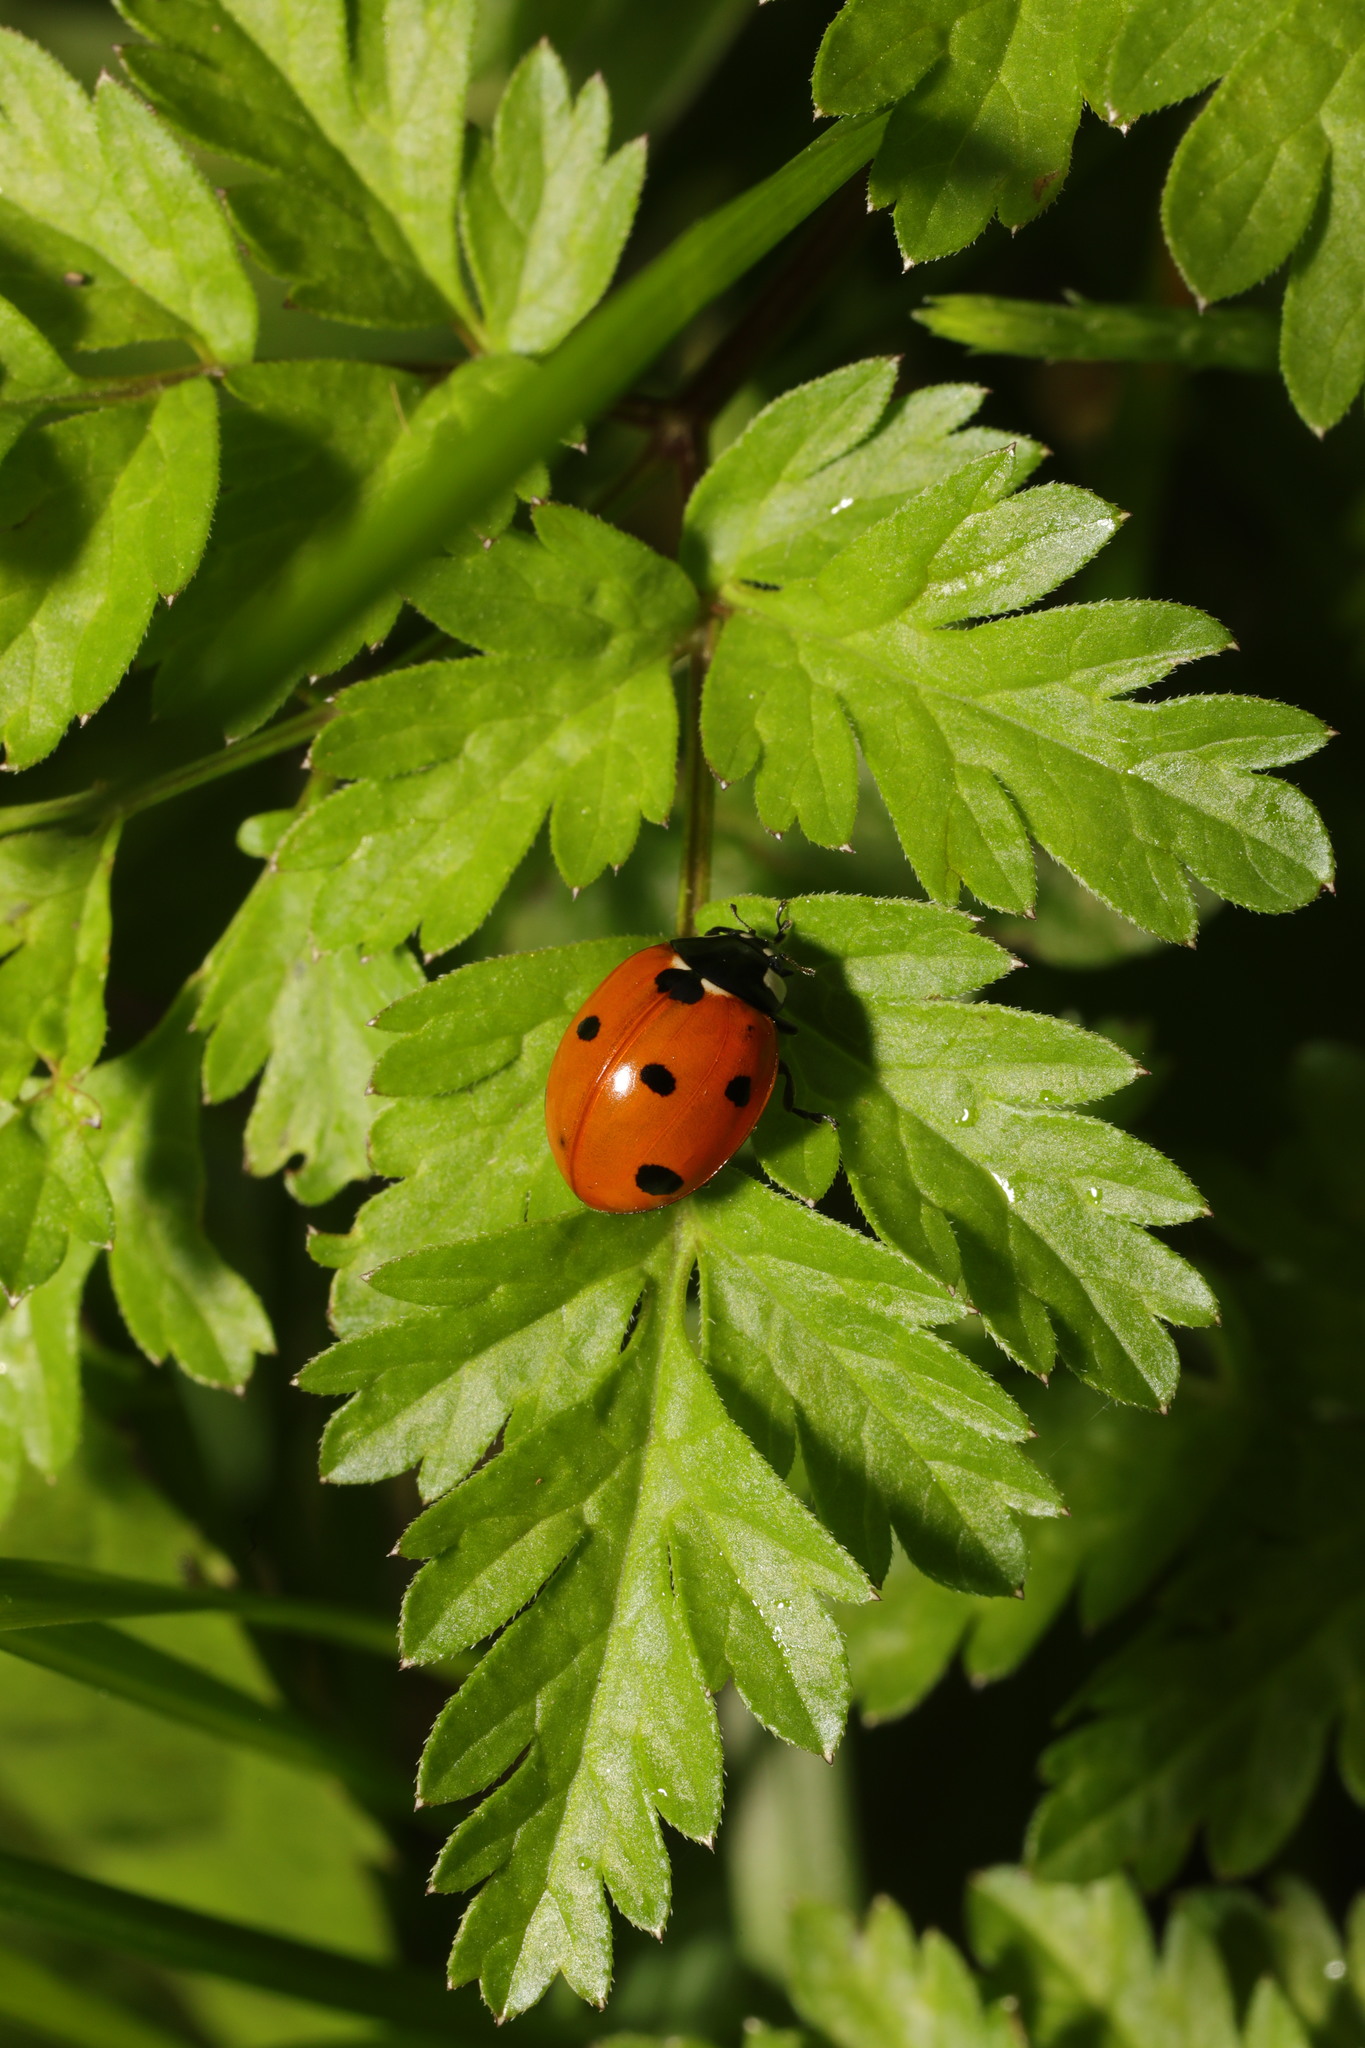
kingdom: Animalia
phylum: Arthropoda
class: Insecta
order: Coleoptera
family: Coccinellidae
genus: Coccinella
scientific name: Coccinella septempunctata
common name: Sevenspotted lady beetle
